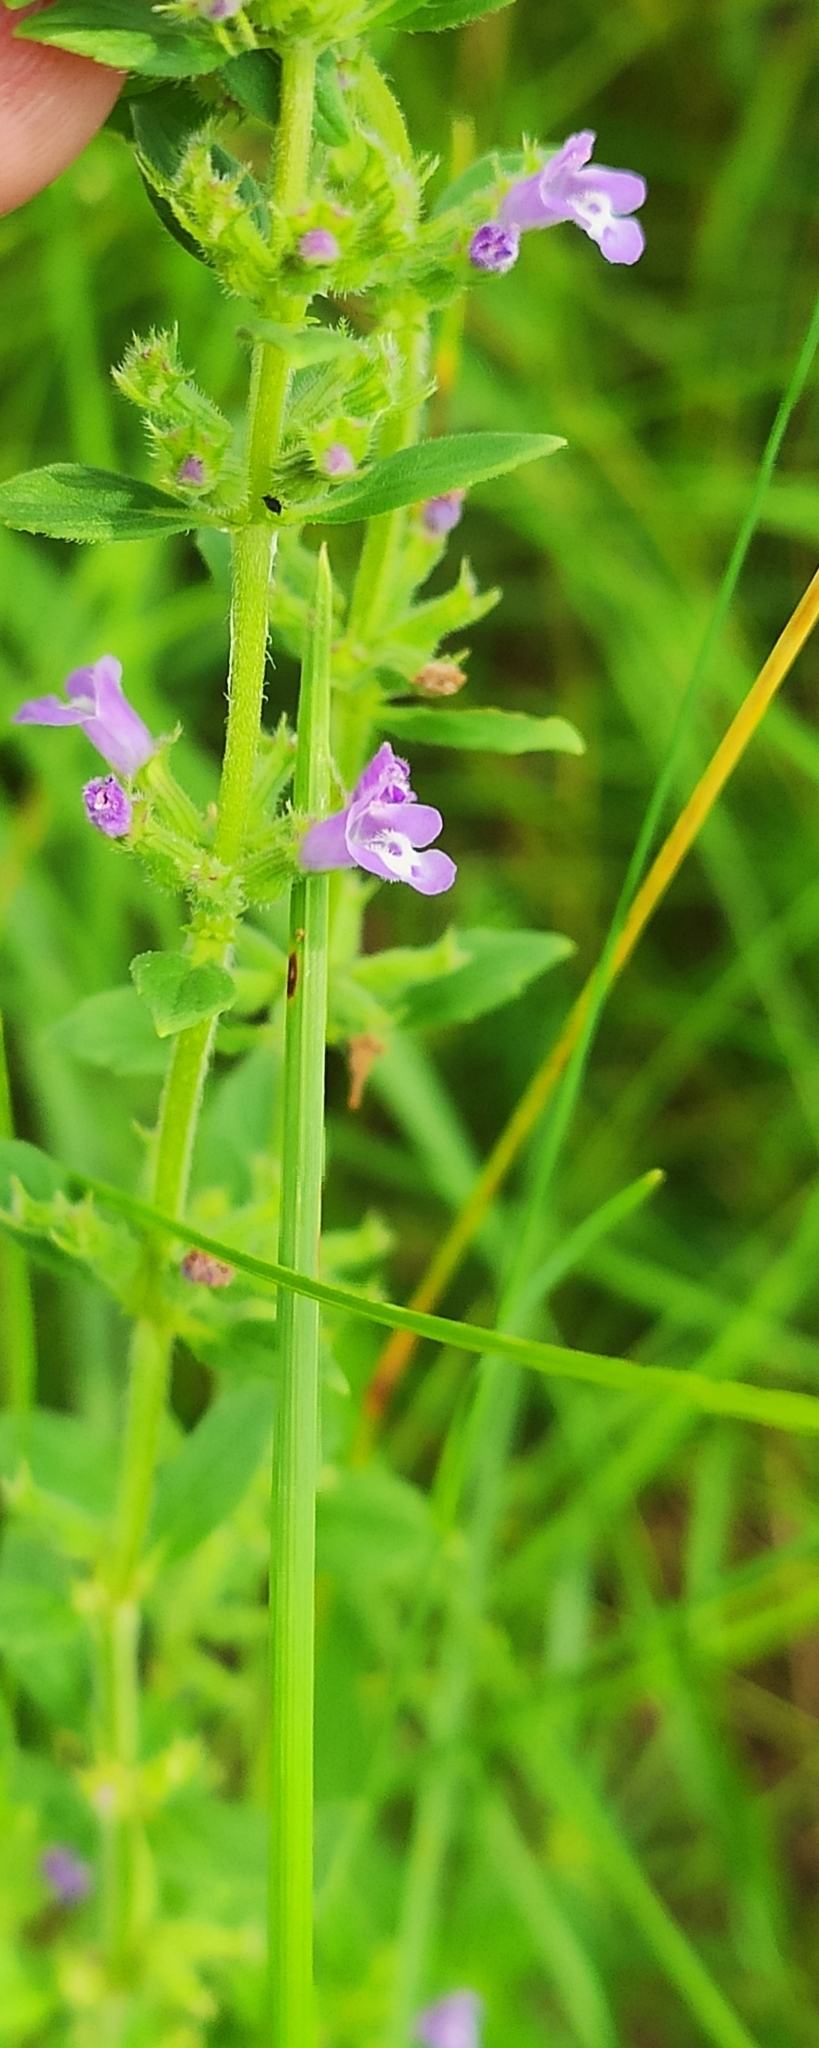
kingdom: Plantae
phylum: Tracheophyta
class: Magnoliopsida
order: Lamiales
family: Lamiaceae
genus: Clinopodium
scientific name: Clinopodium acinos
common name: Basil thyme
